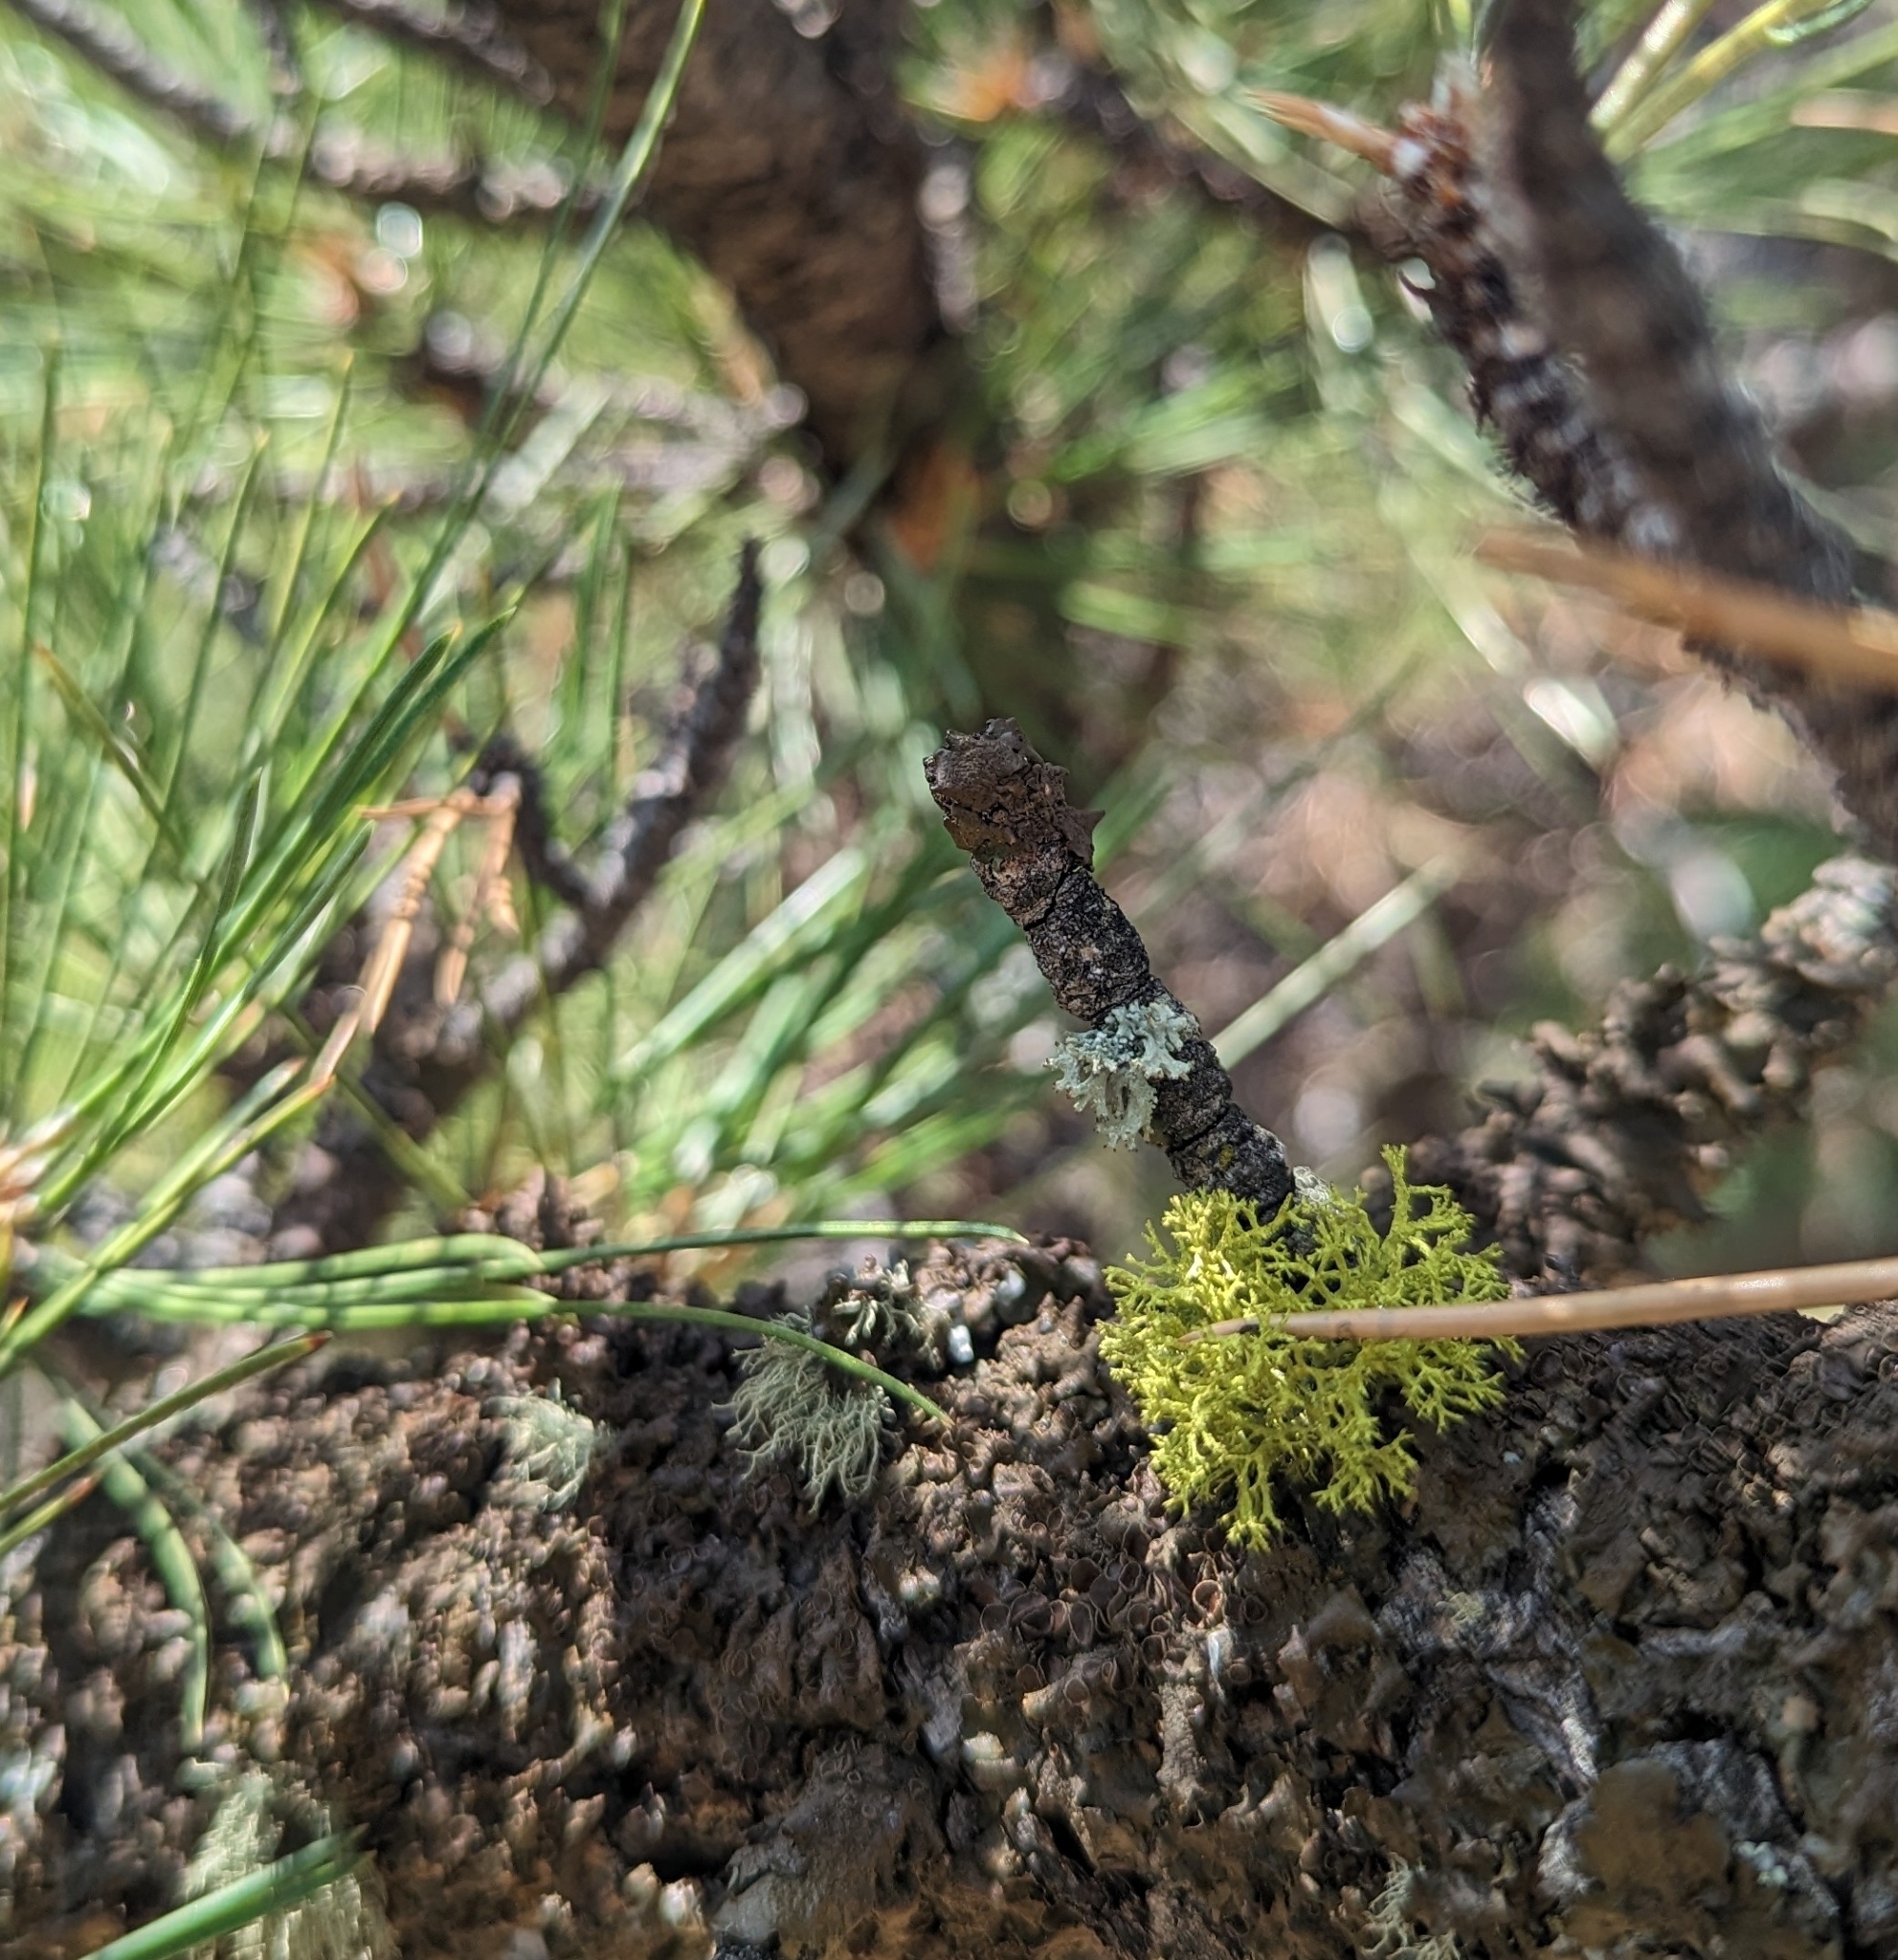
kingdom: Fungi
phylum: Ascomycota
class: Lecanoromycetes
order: Lecanorales
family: Parmeliaceae
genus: Letharia
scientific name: Letharia lupina
